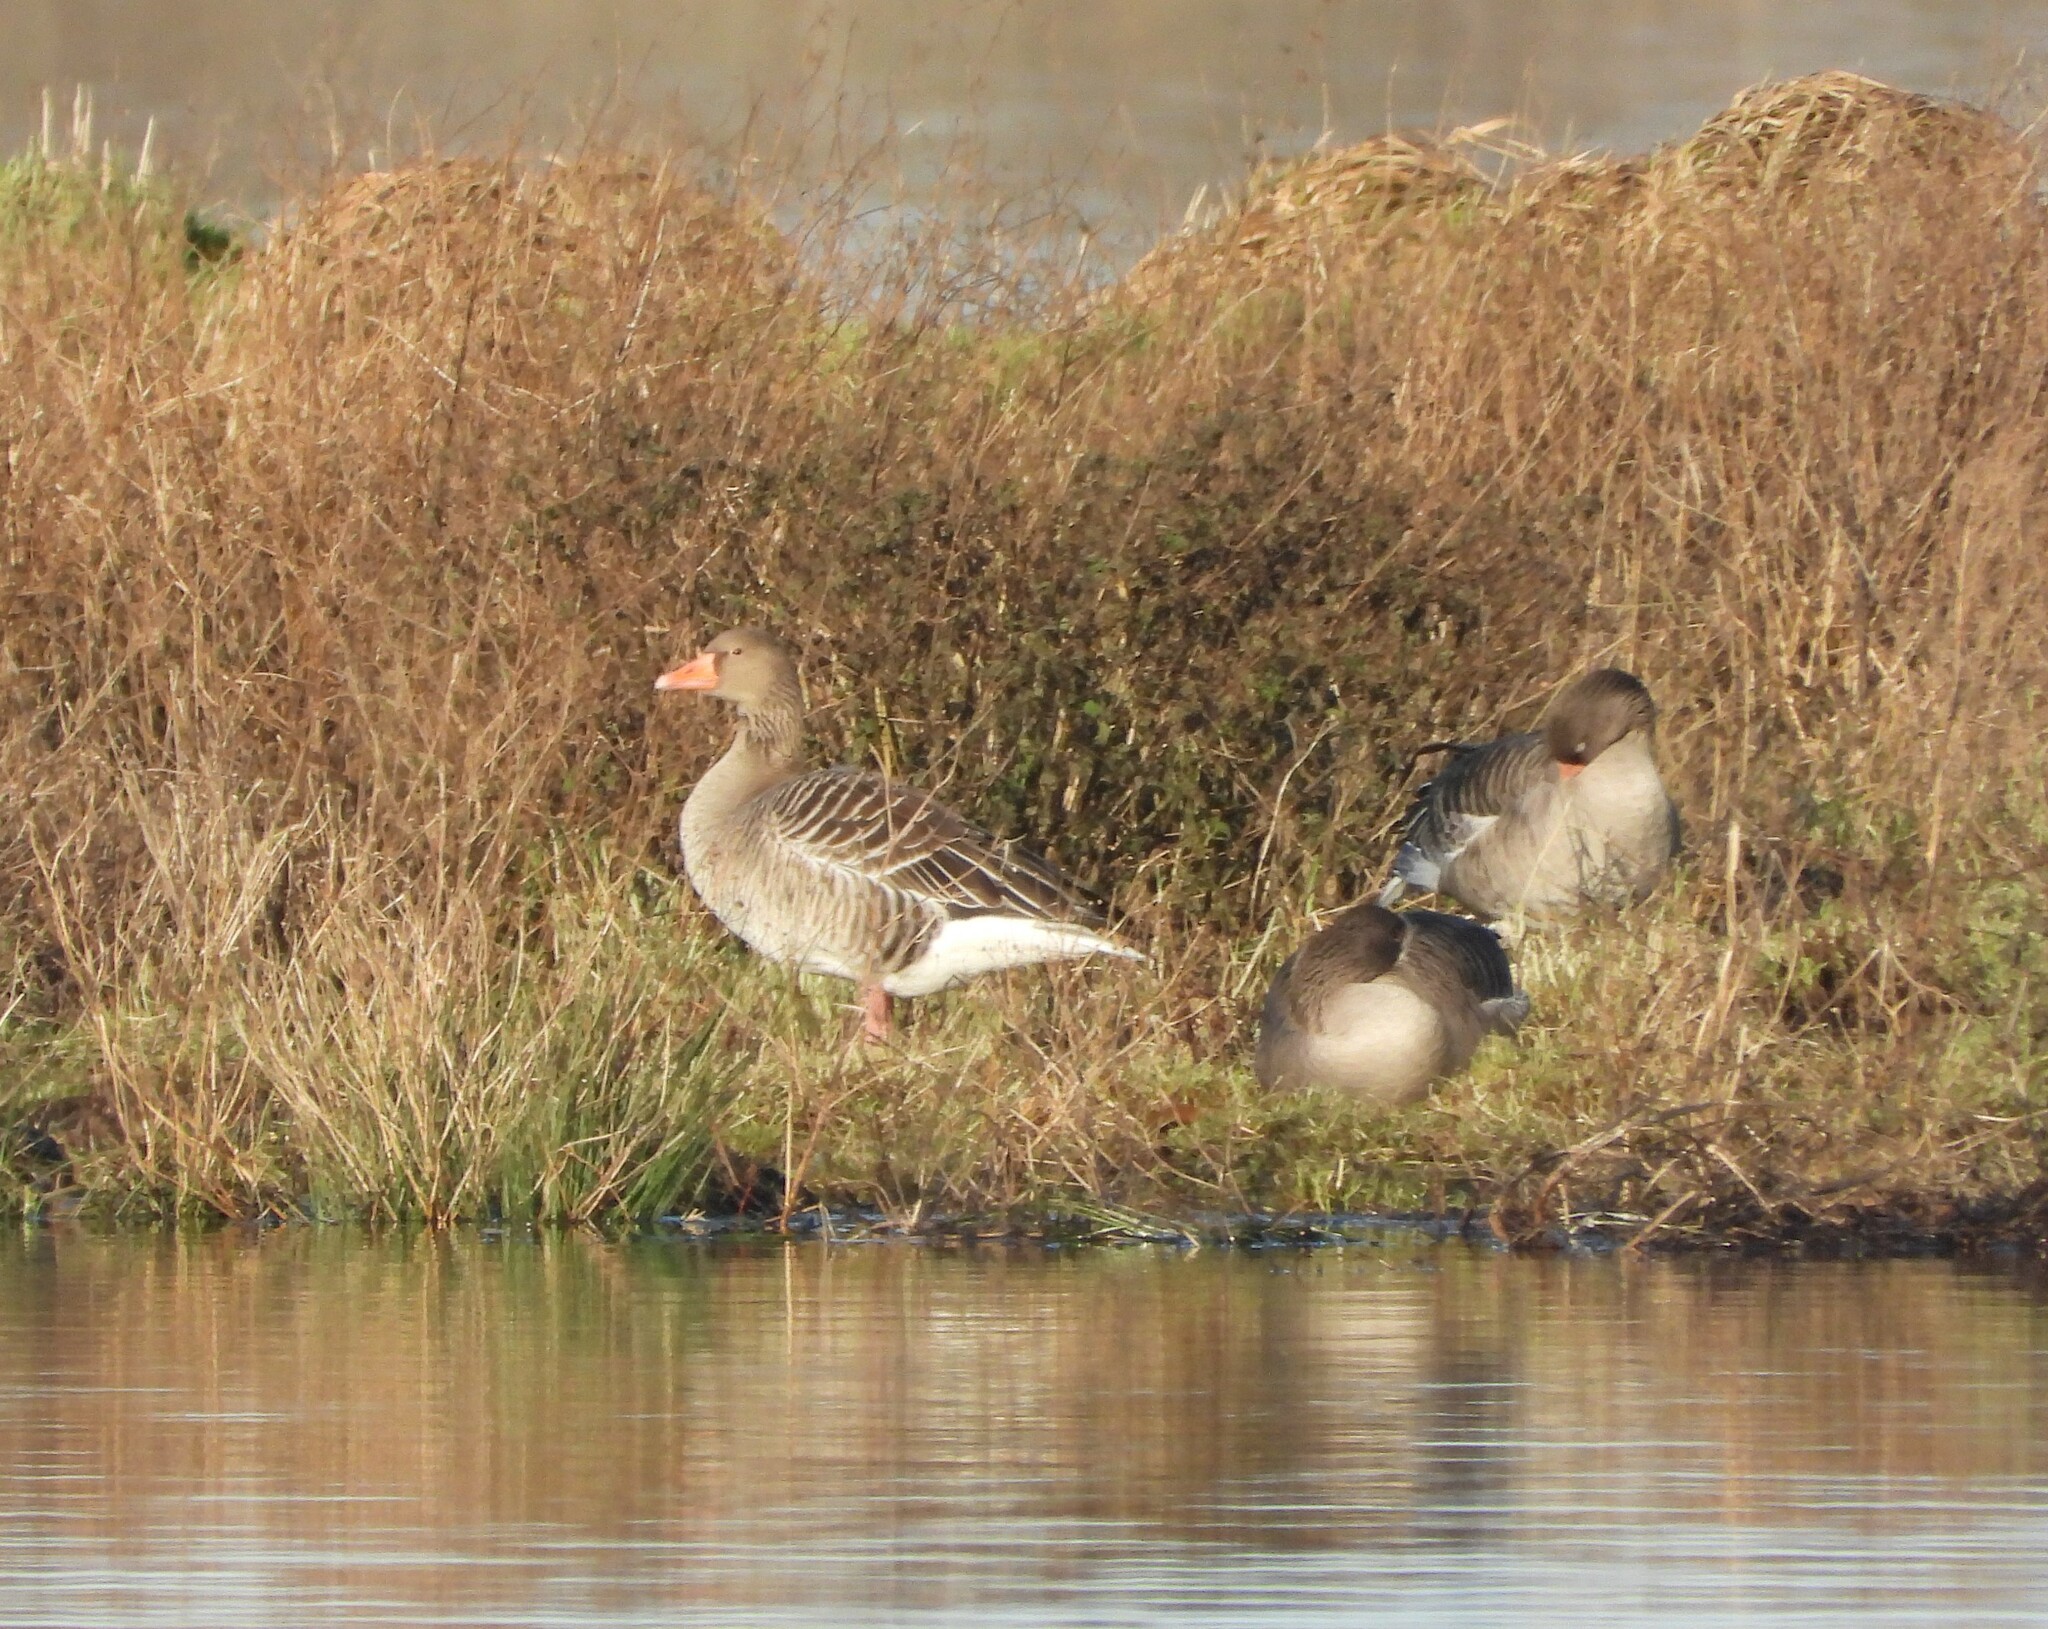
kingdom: Animalia
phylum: Chordata
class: Aves
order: Anseriformes
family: Anatidae
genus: Anser
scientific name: Anser anser
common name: Greylag goose
